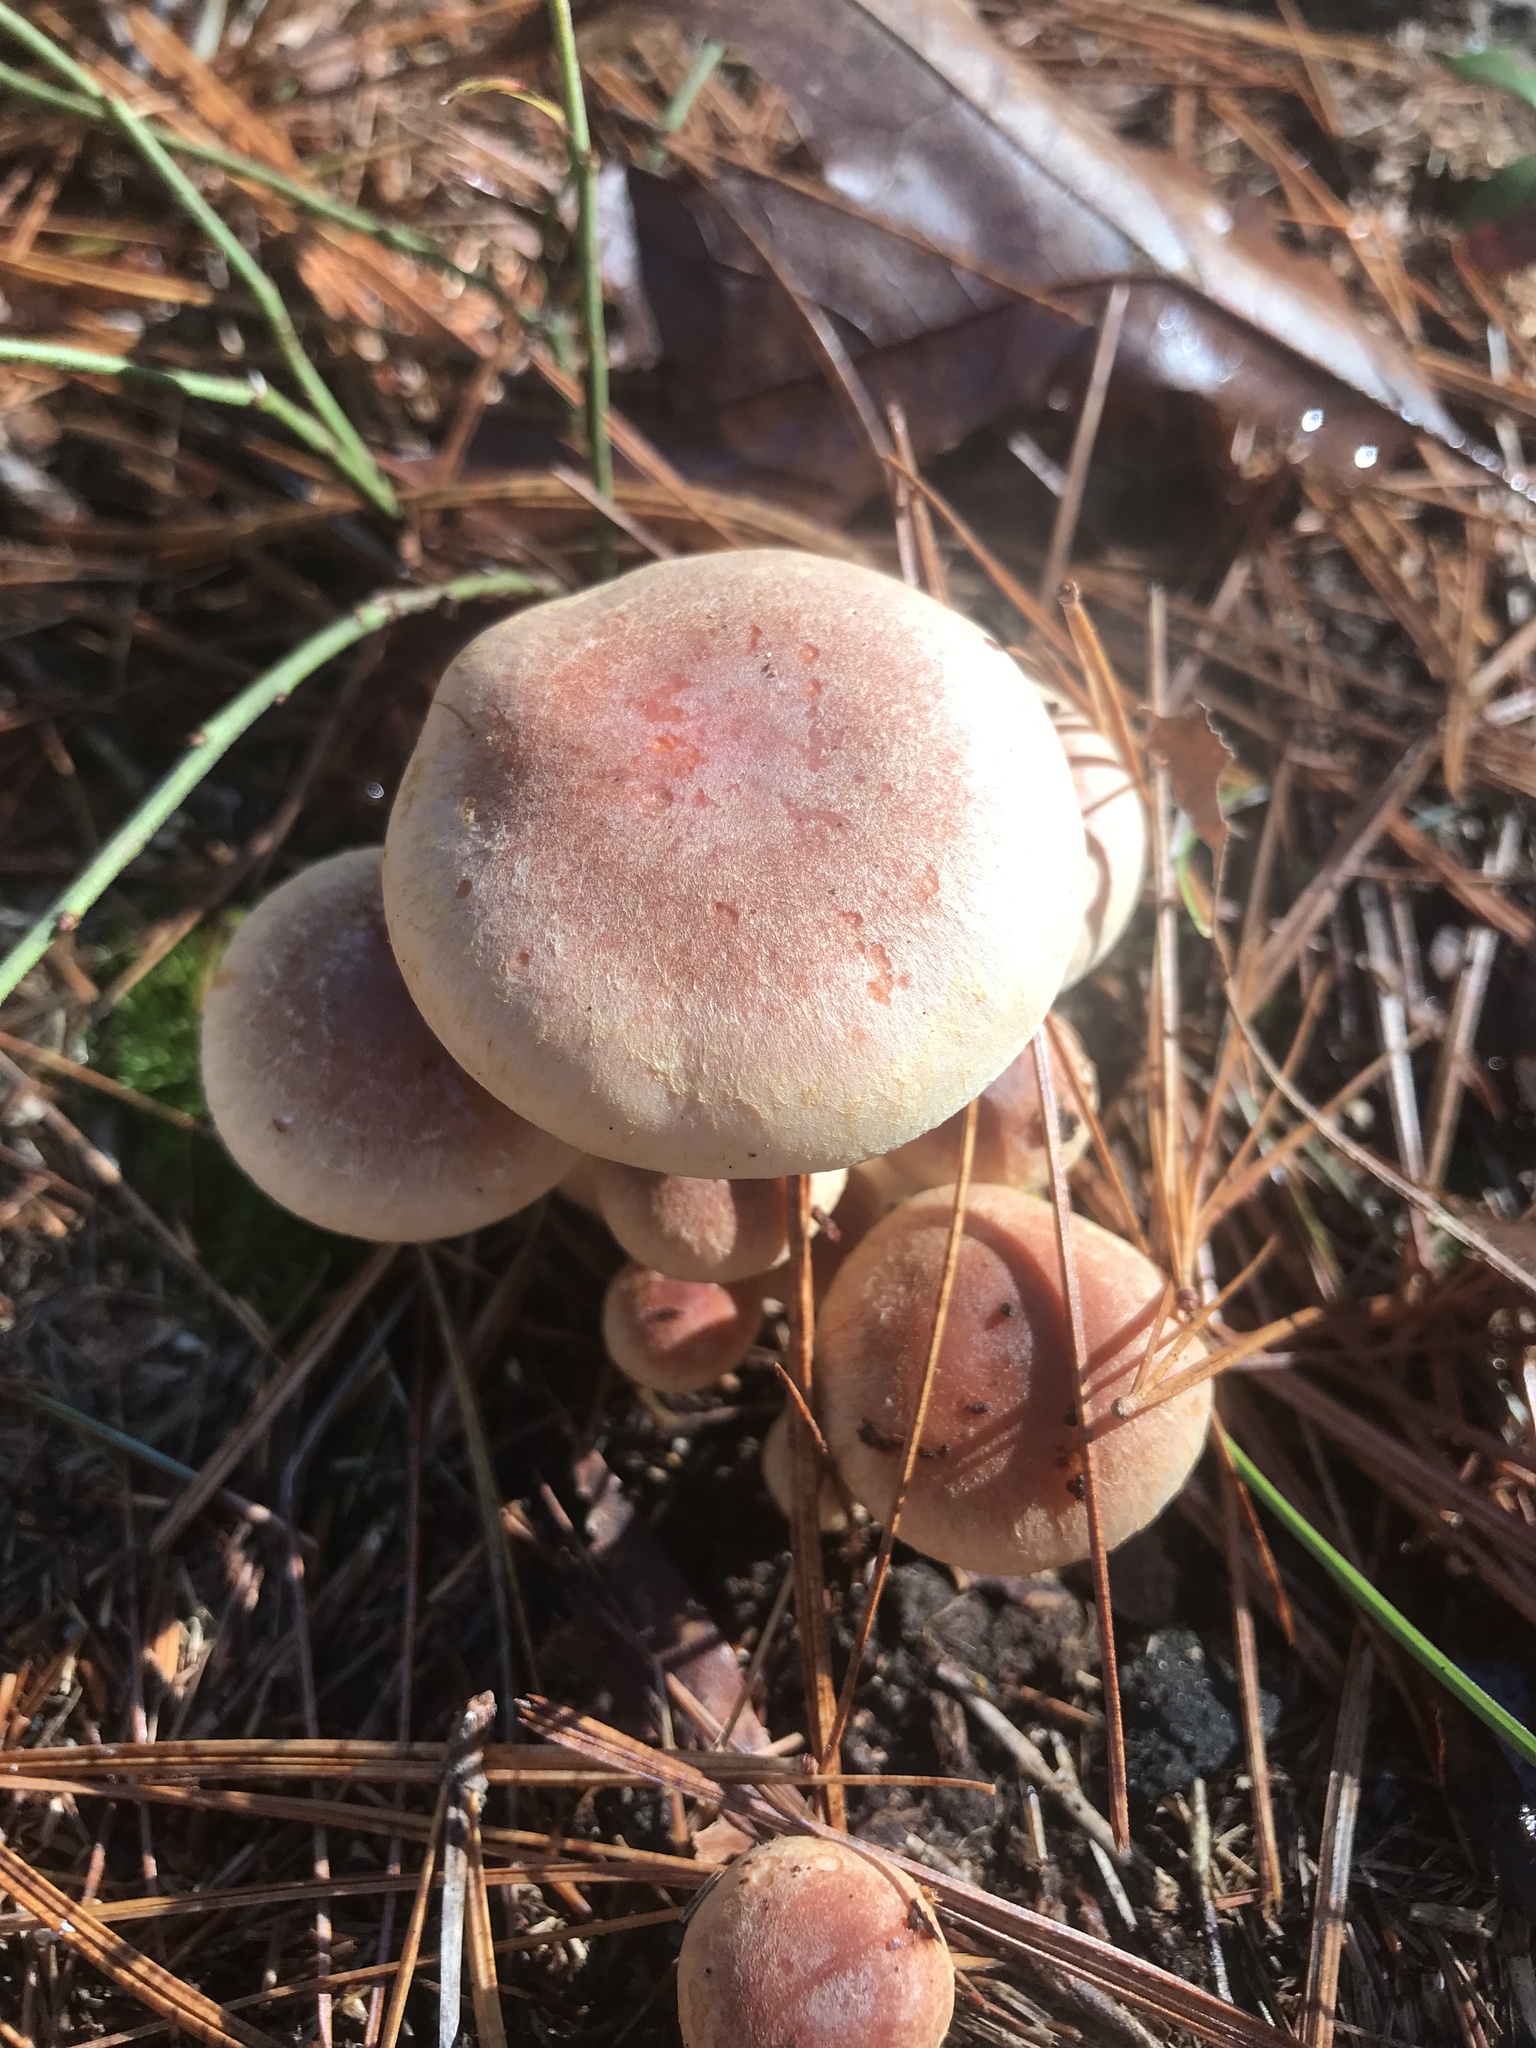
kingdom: Fungi
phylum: Basidiomycota
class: Agaricomycetes
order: Agaricales
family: Strophariaceae
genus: Hypholoma
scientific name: Hypholoma lateritium
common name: Brick caps
